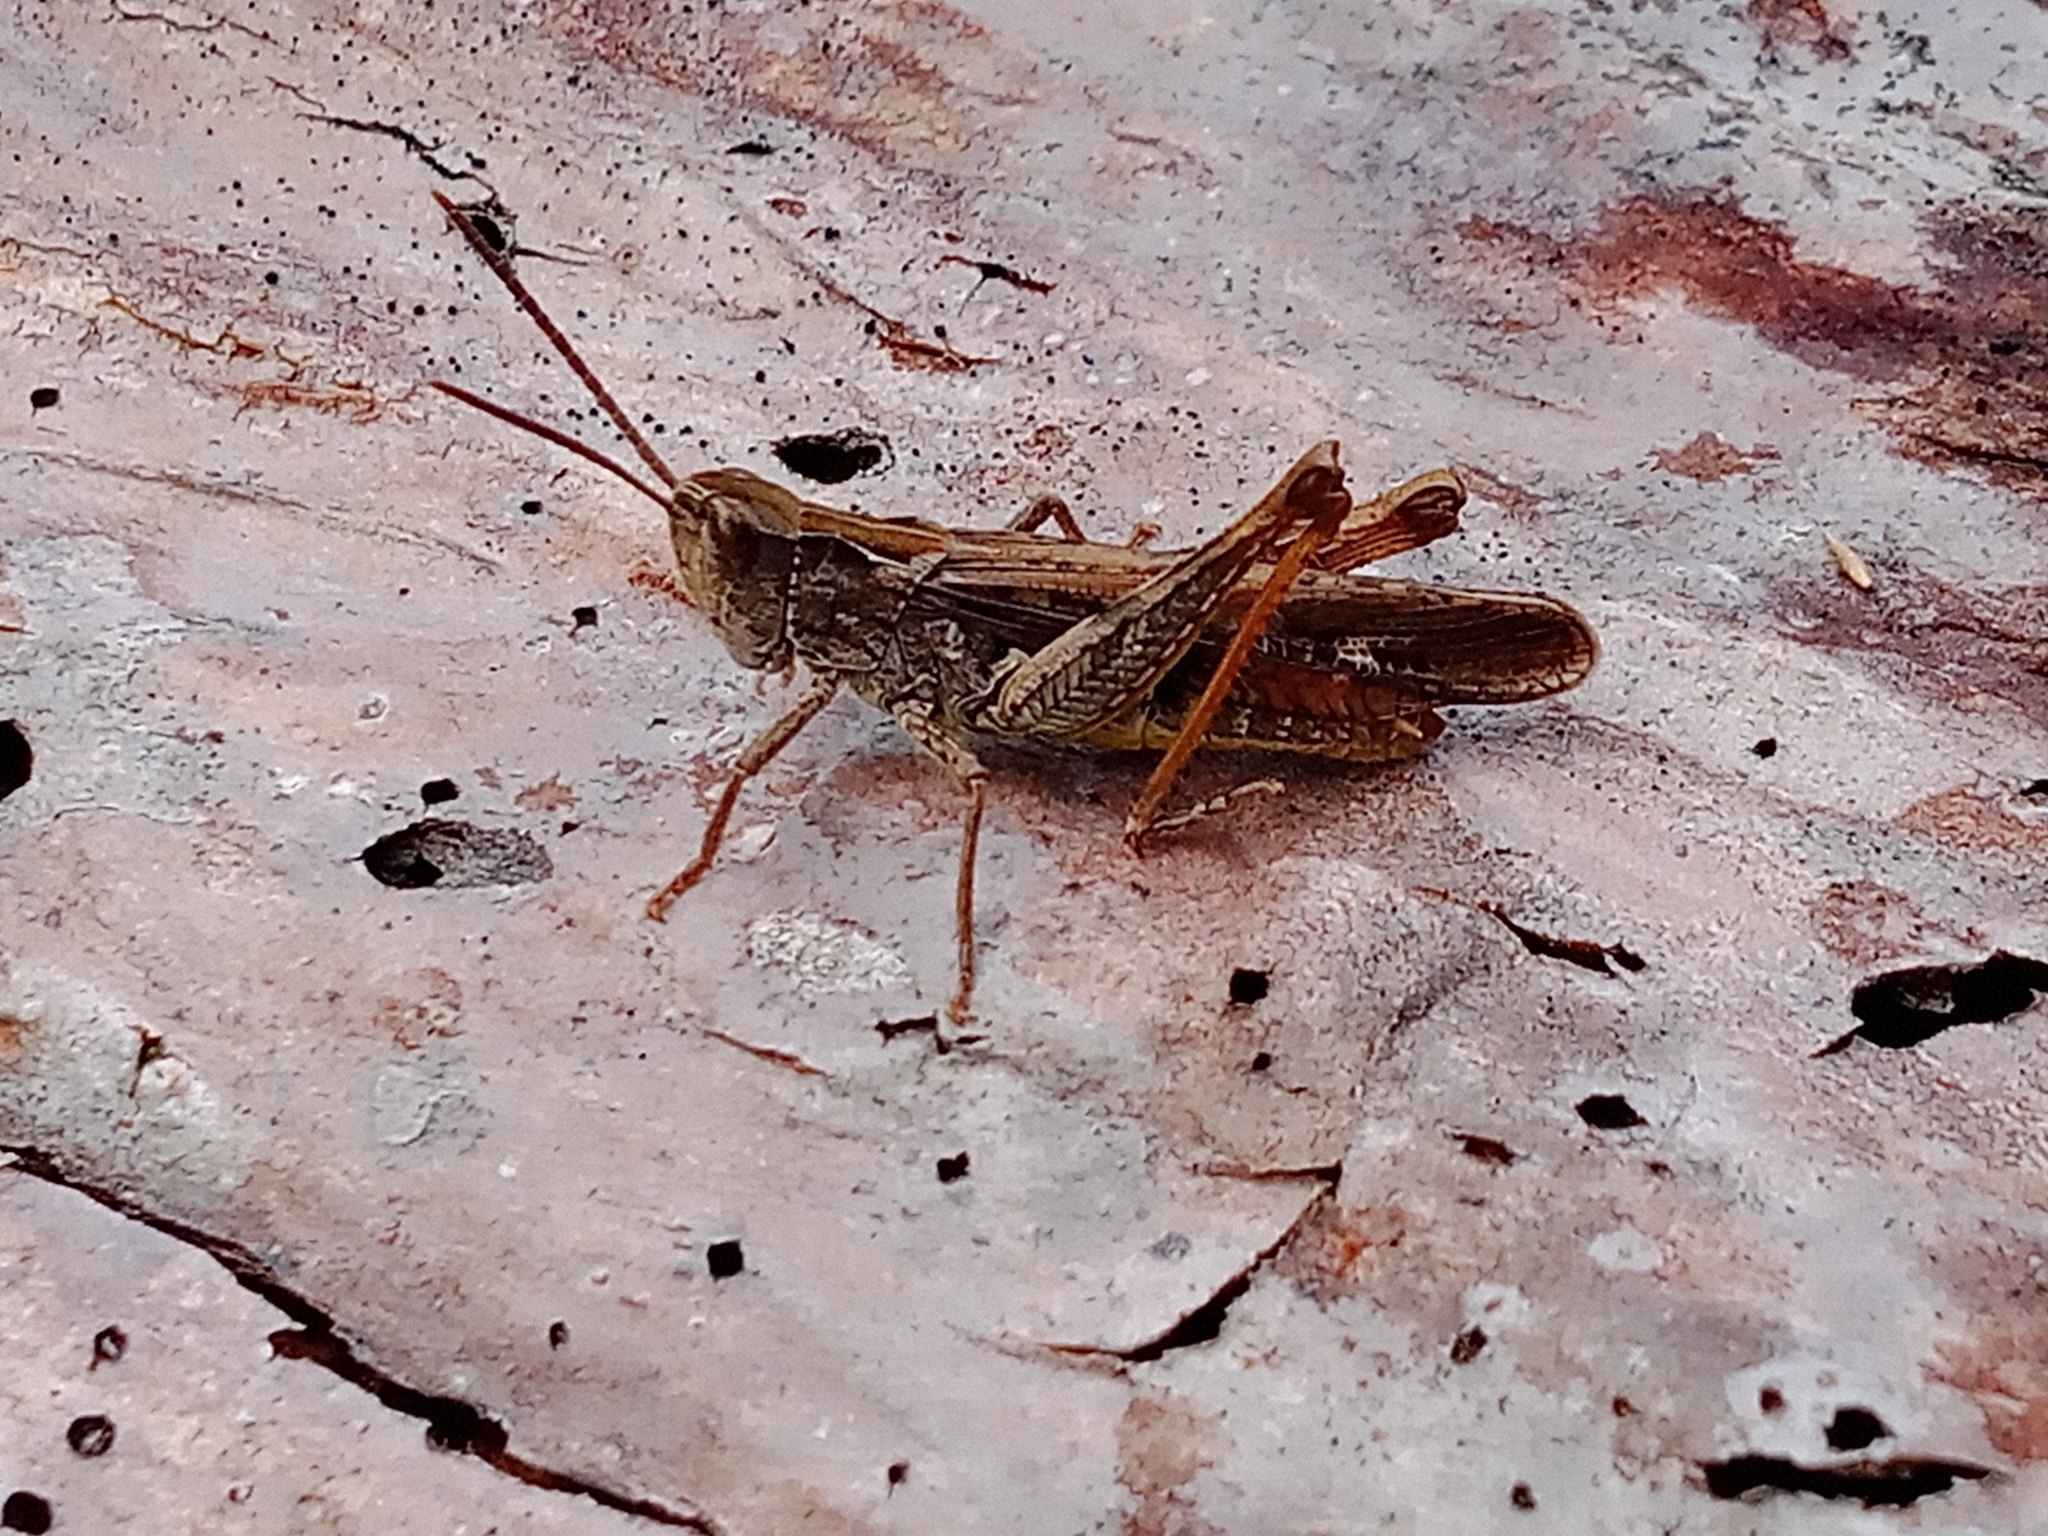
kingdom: Animalia
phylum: Arthropoda
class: Insecta
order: Orthoptera
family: Acrididae
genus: Chorthippus
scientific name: Chorthippus biguttulus
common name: Bow-winged grasshopper
